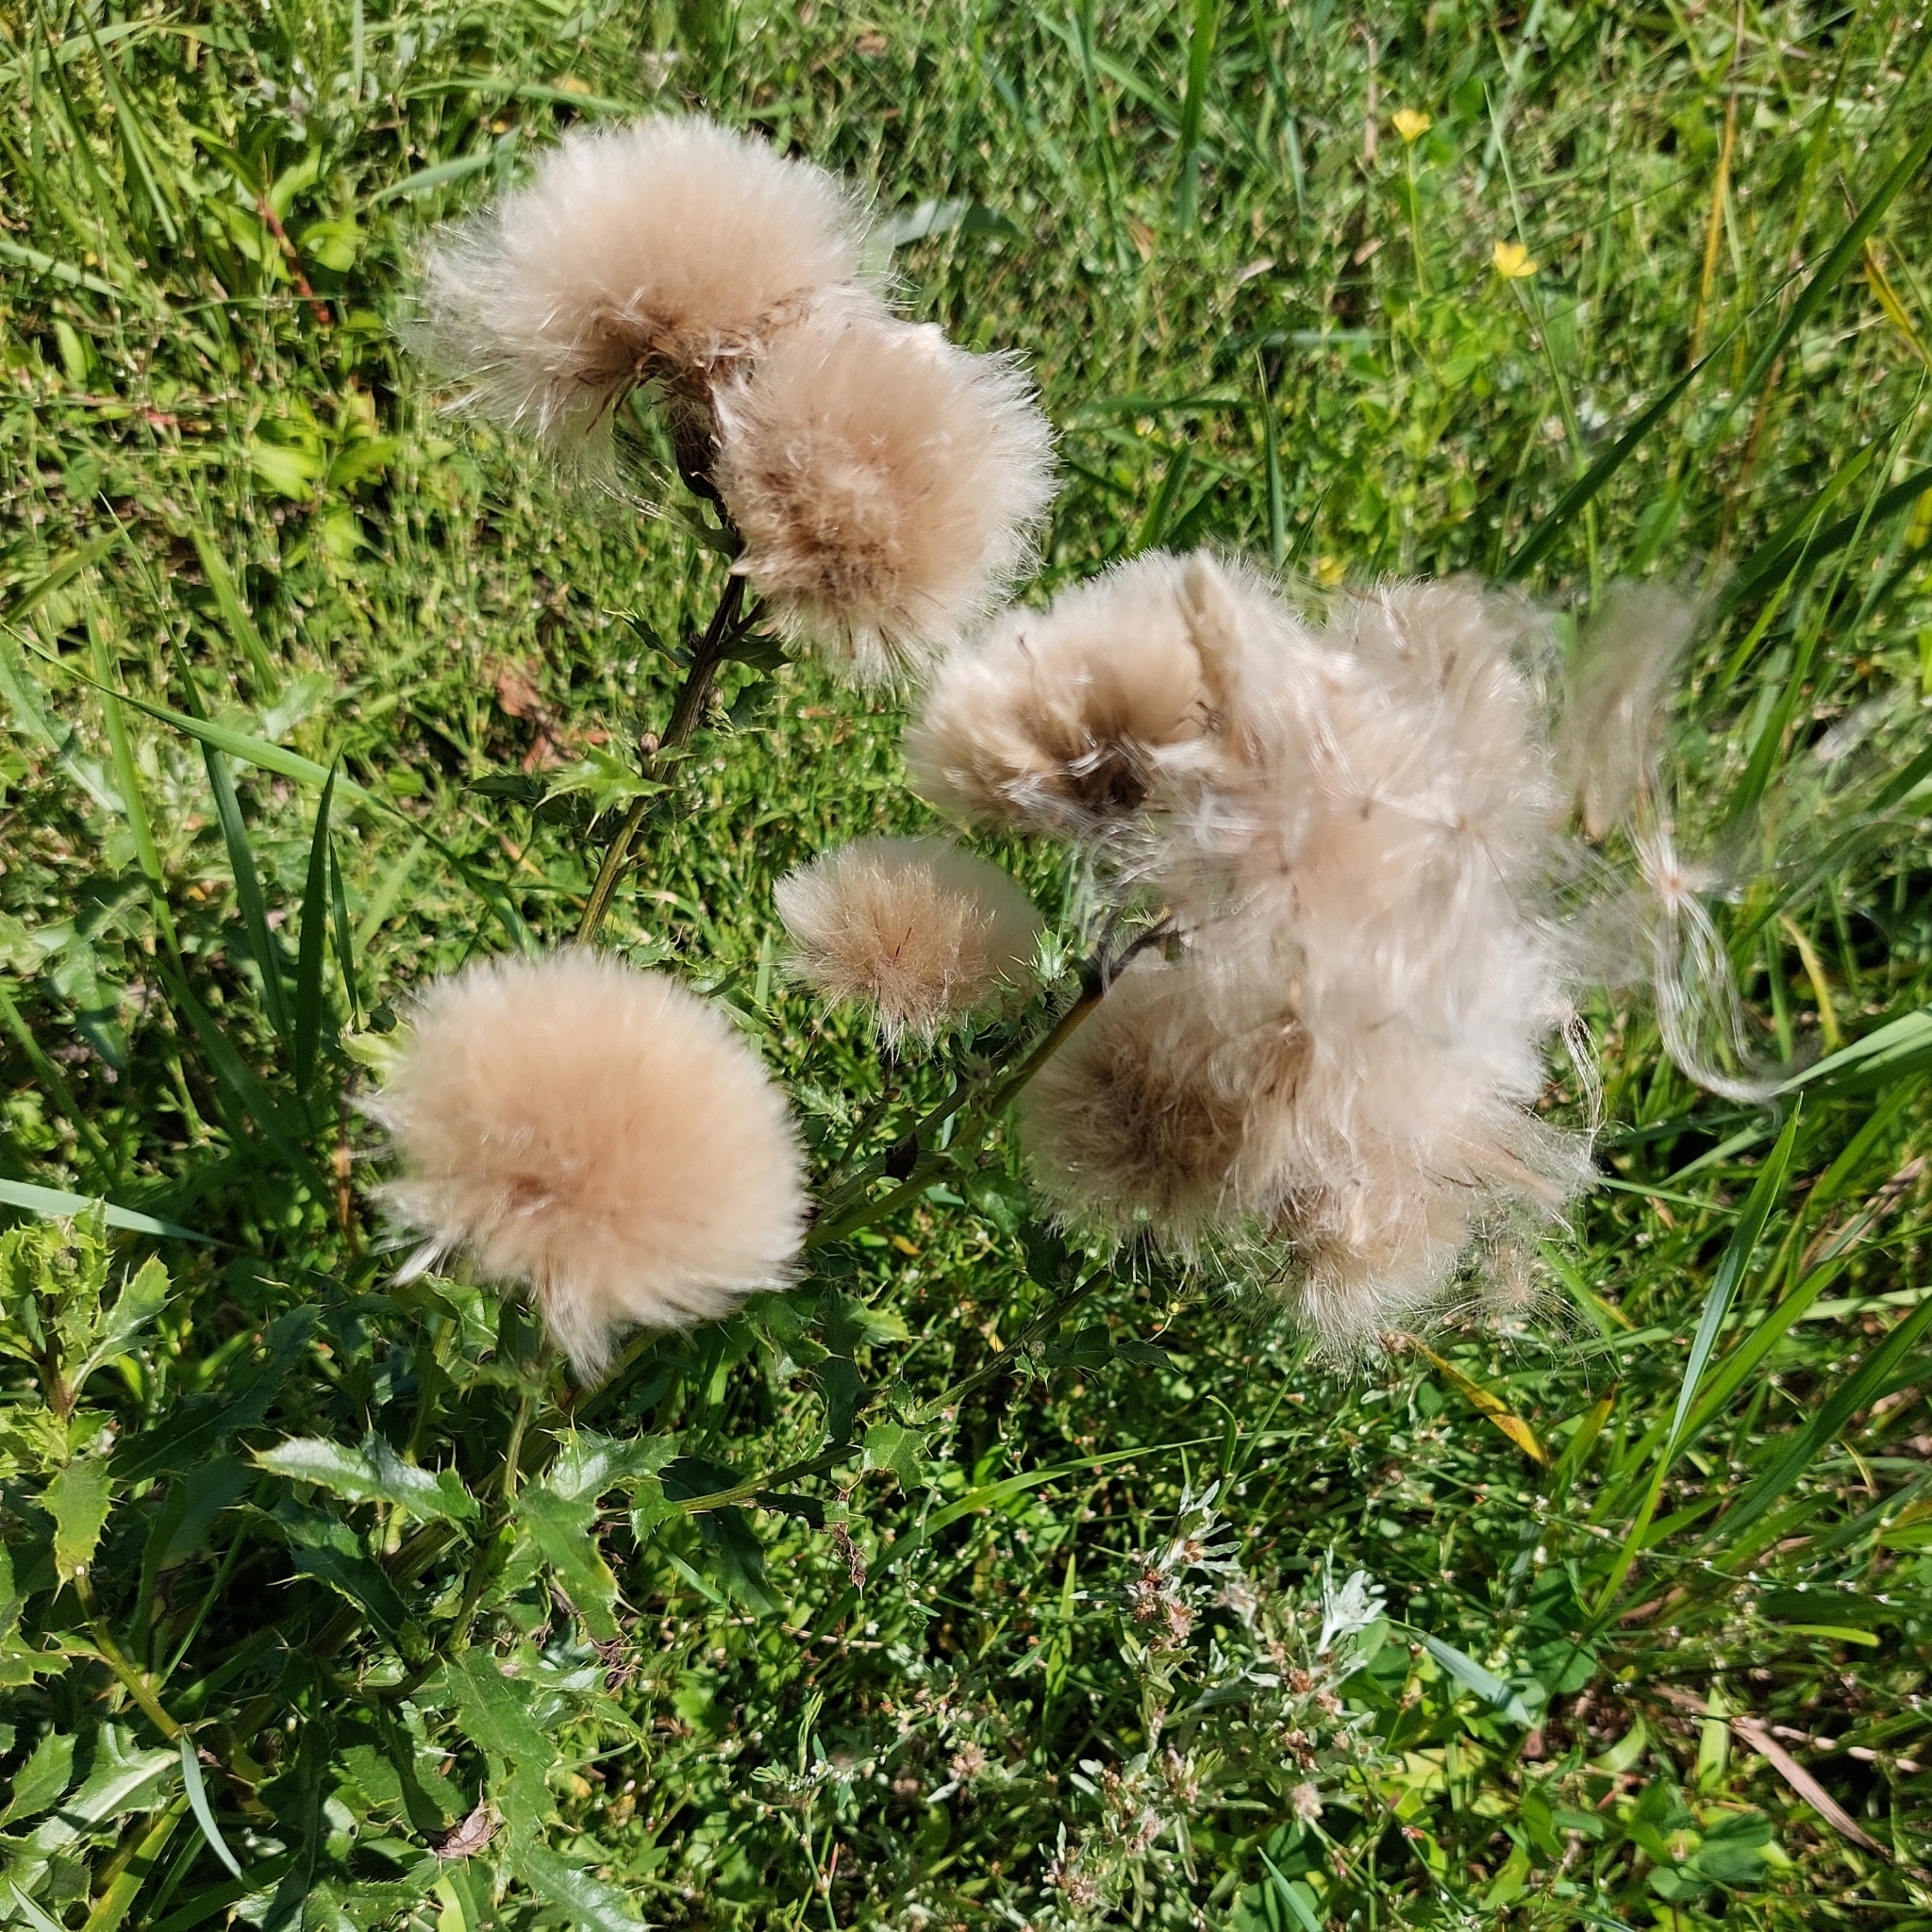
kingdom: Plantae
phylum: Tracheophyta
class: Magnoliopsida
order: Asterales
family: Asteraceae
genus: Cirsium
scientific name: Cirsium arvense
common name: Creeping thistle
